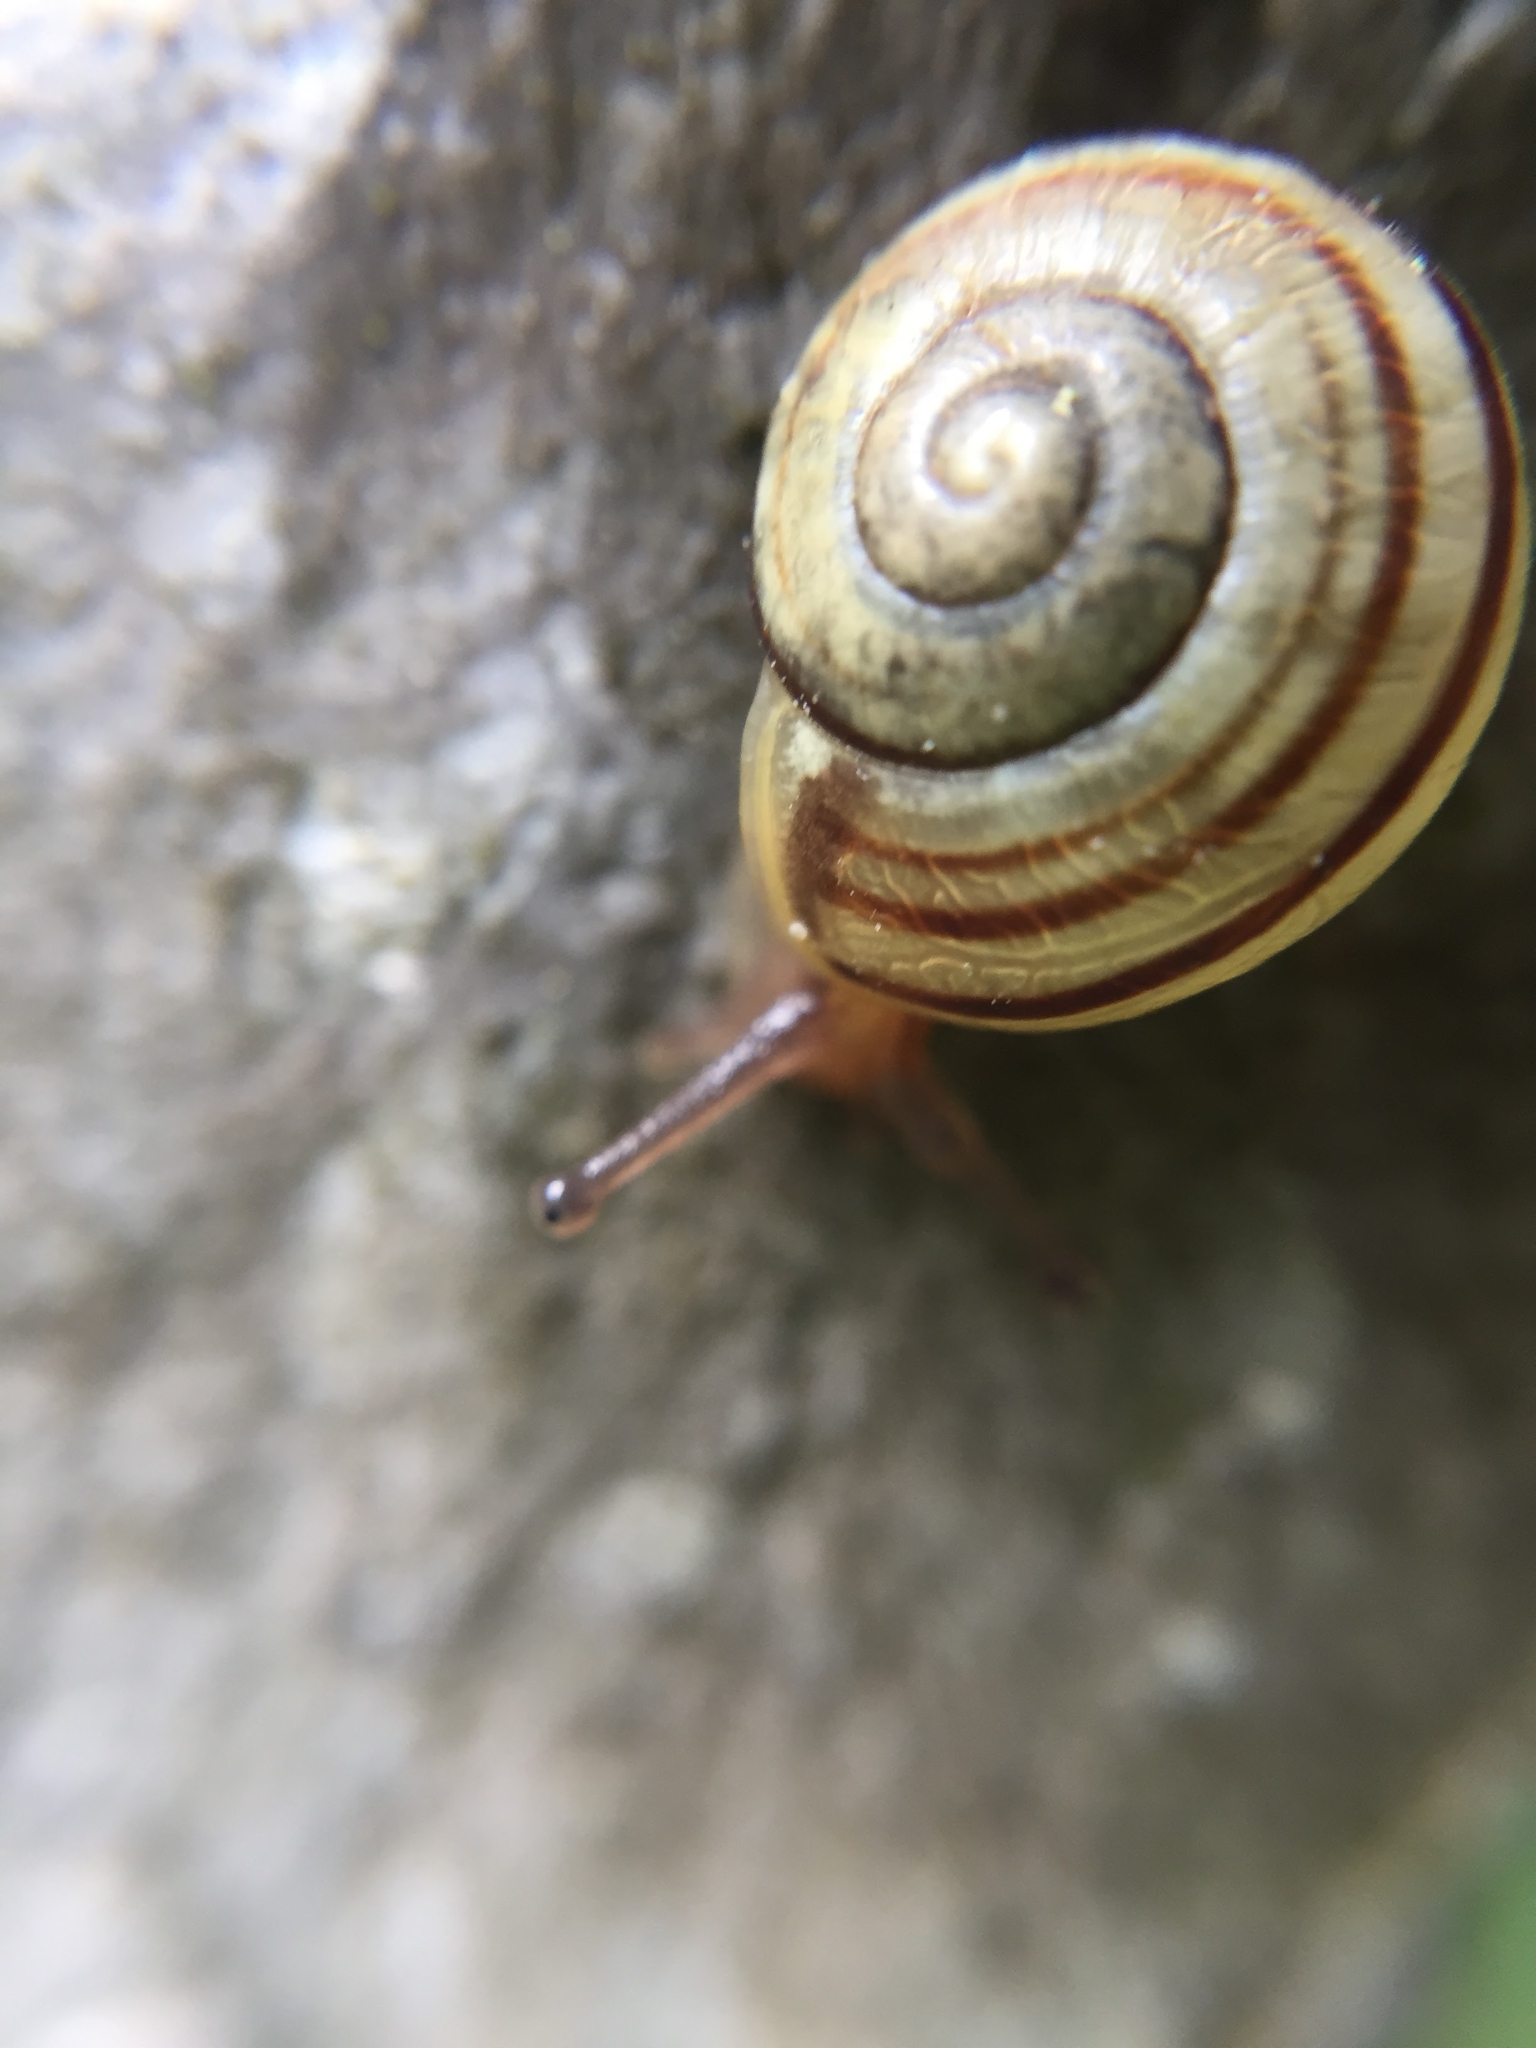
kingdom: Animalia
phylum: Mollusca
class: Gastropoda
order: Stylommatophora
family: Helicidae
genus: Cepaea
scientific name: Cepaea nemoralis
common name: Grovesnail
